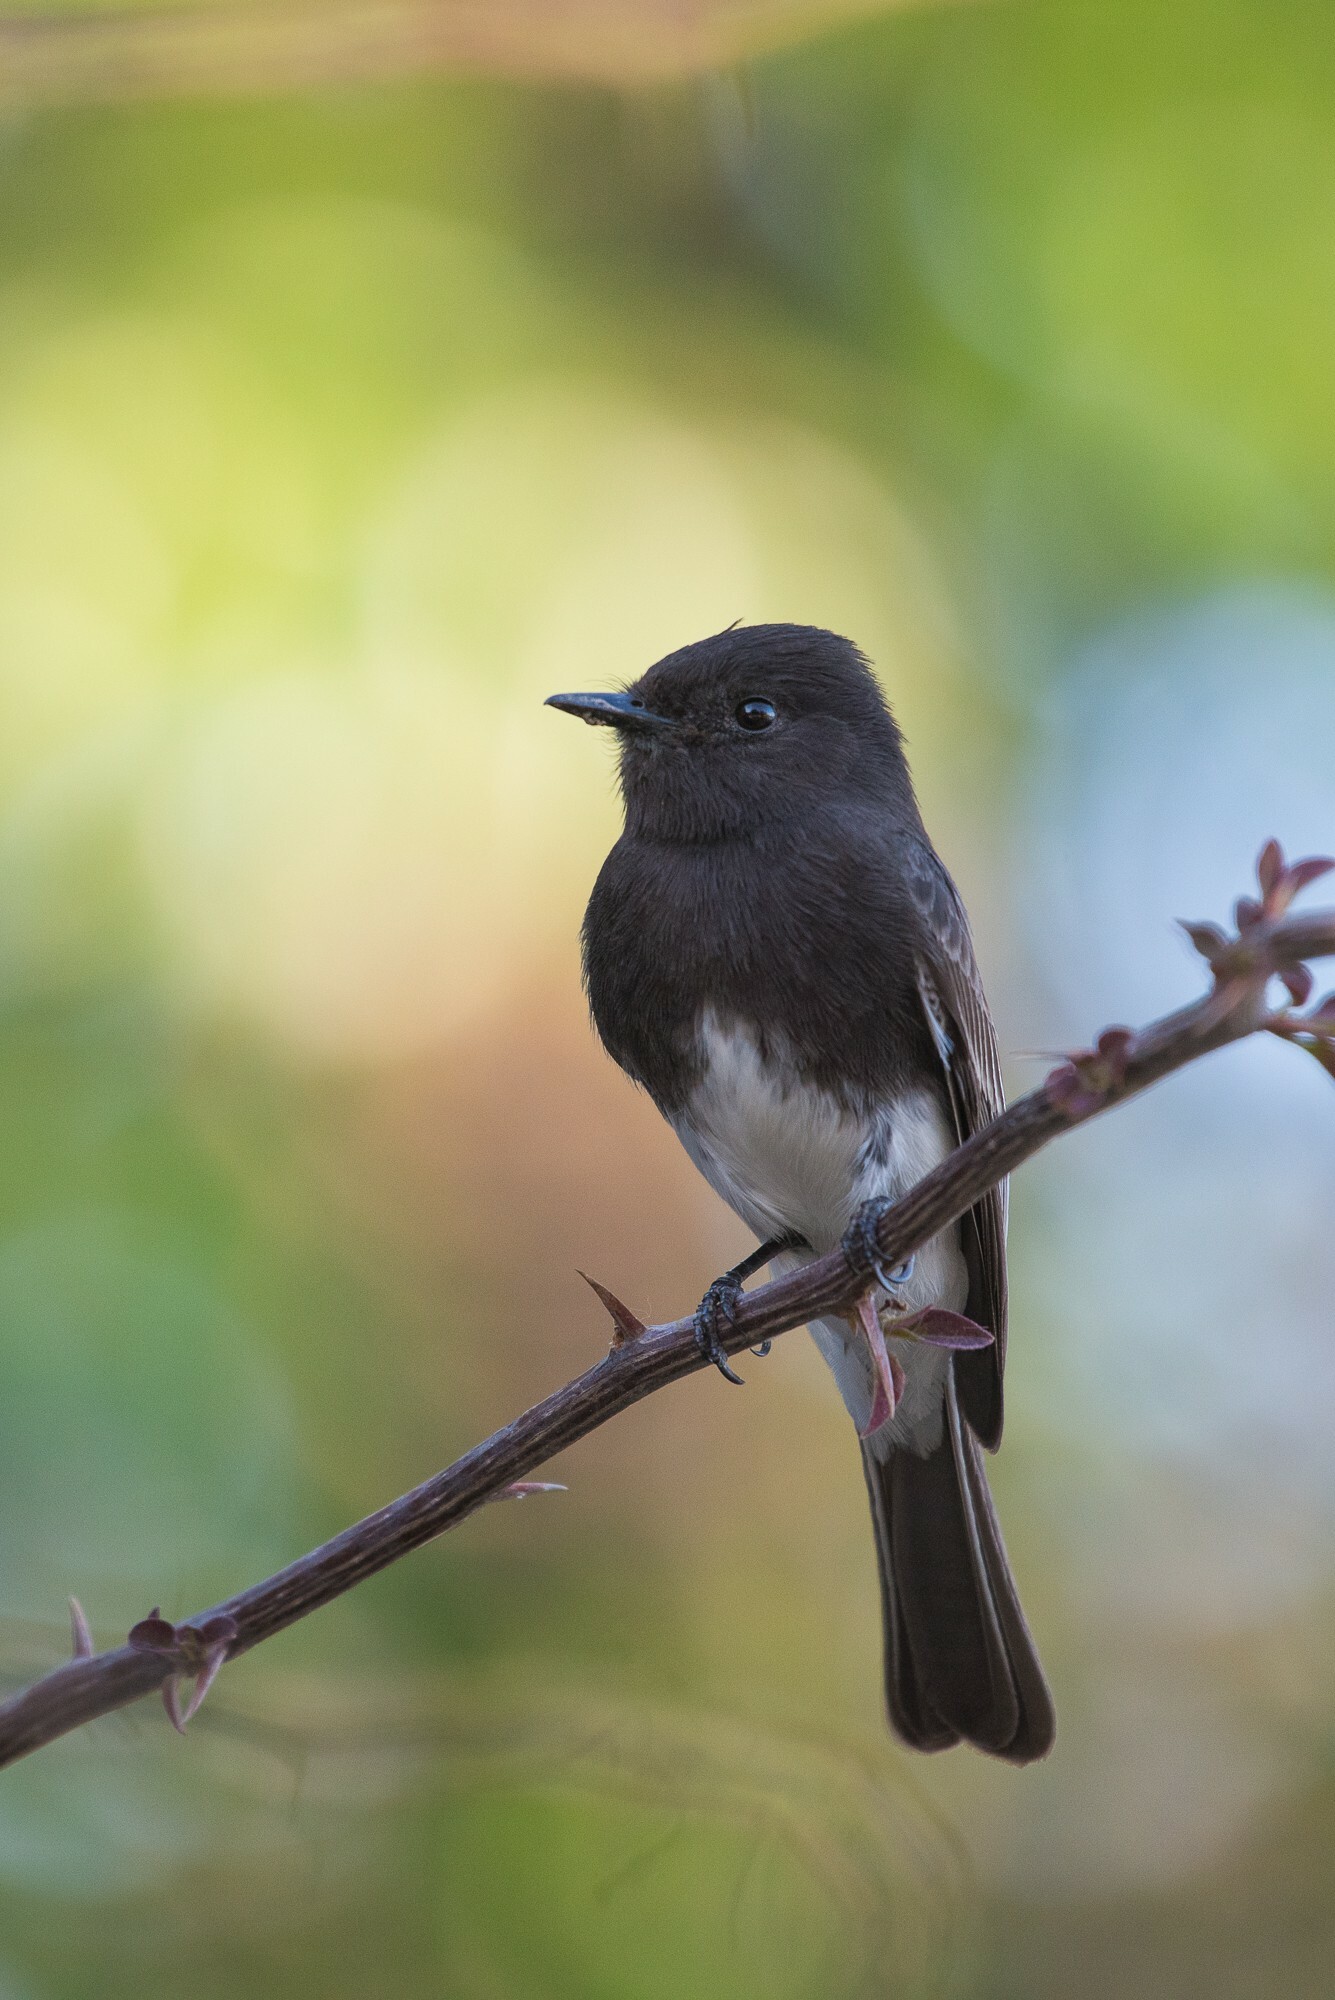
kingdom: Animalia
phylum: Chordata
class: Aves
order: Passeriformes
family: Tyrannidae
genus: Sayornis
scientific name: Sayornis nigricans
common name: Black phoebe
